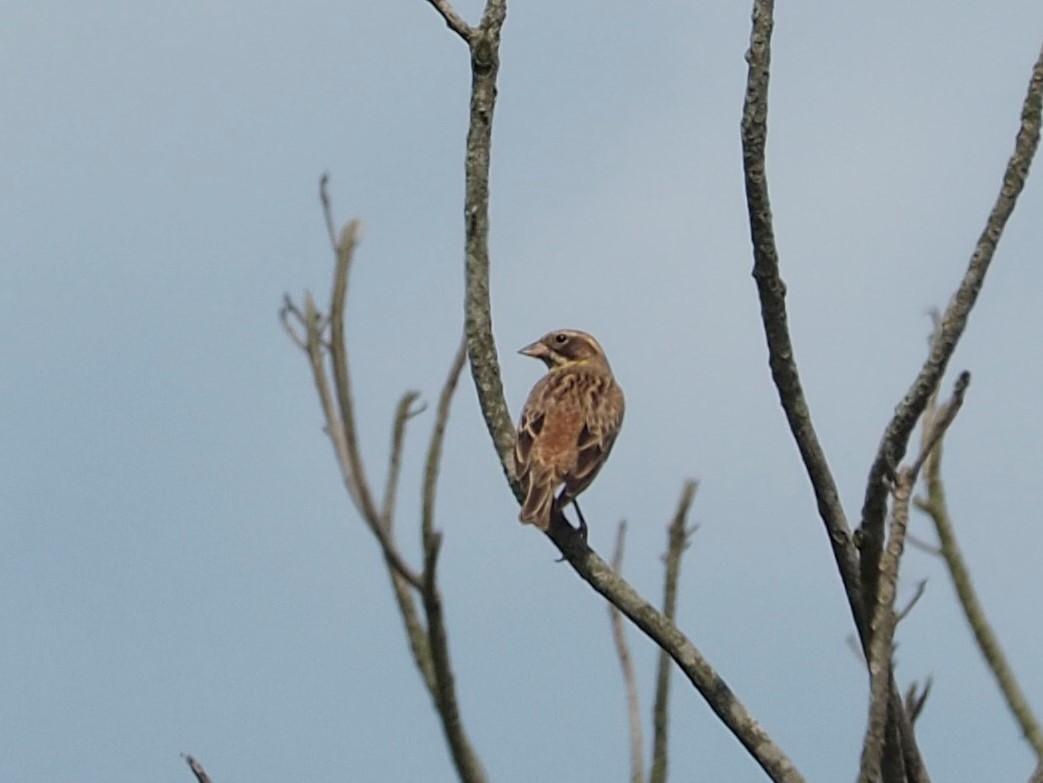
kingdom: Animalia
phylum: Chordata
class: Aves
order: Passeriformes
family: Emberizidae
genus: Emberiza
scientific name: Emberiza rutila
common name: Chestnut bunting
